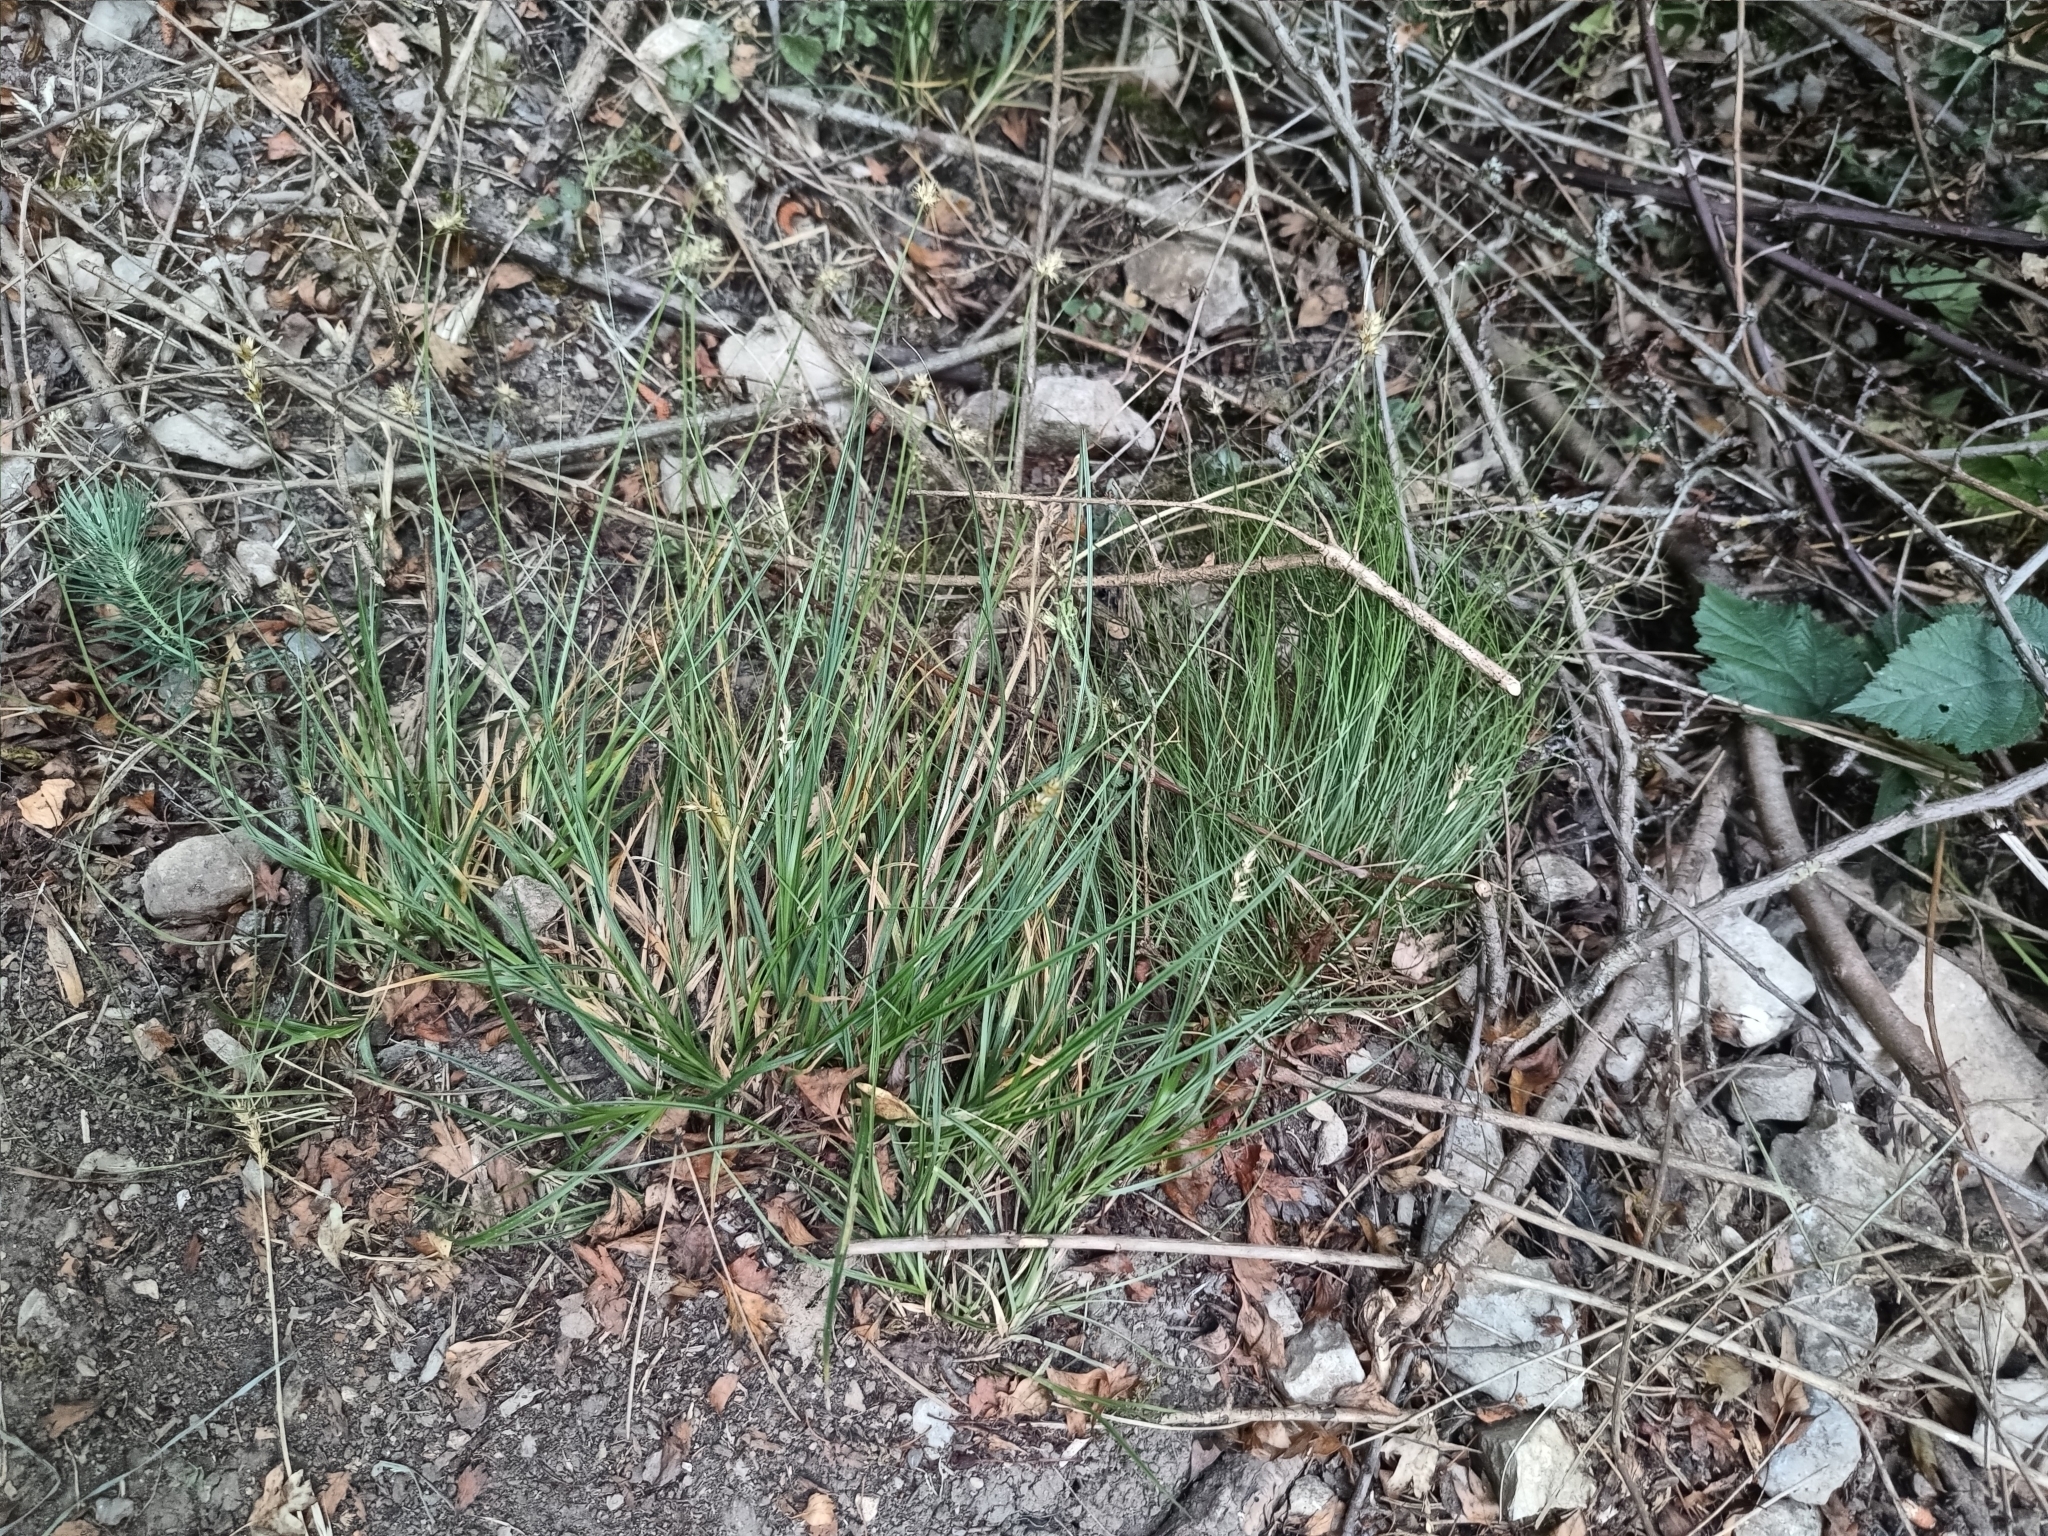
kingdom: Plantae
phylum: Tracheophyta
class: Liliopsida
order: Poales
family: Cyperaceae
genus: Carex
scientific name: Carex spicata
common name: Spiked sedge
